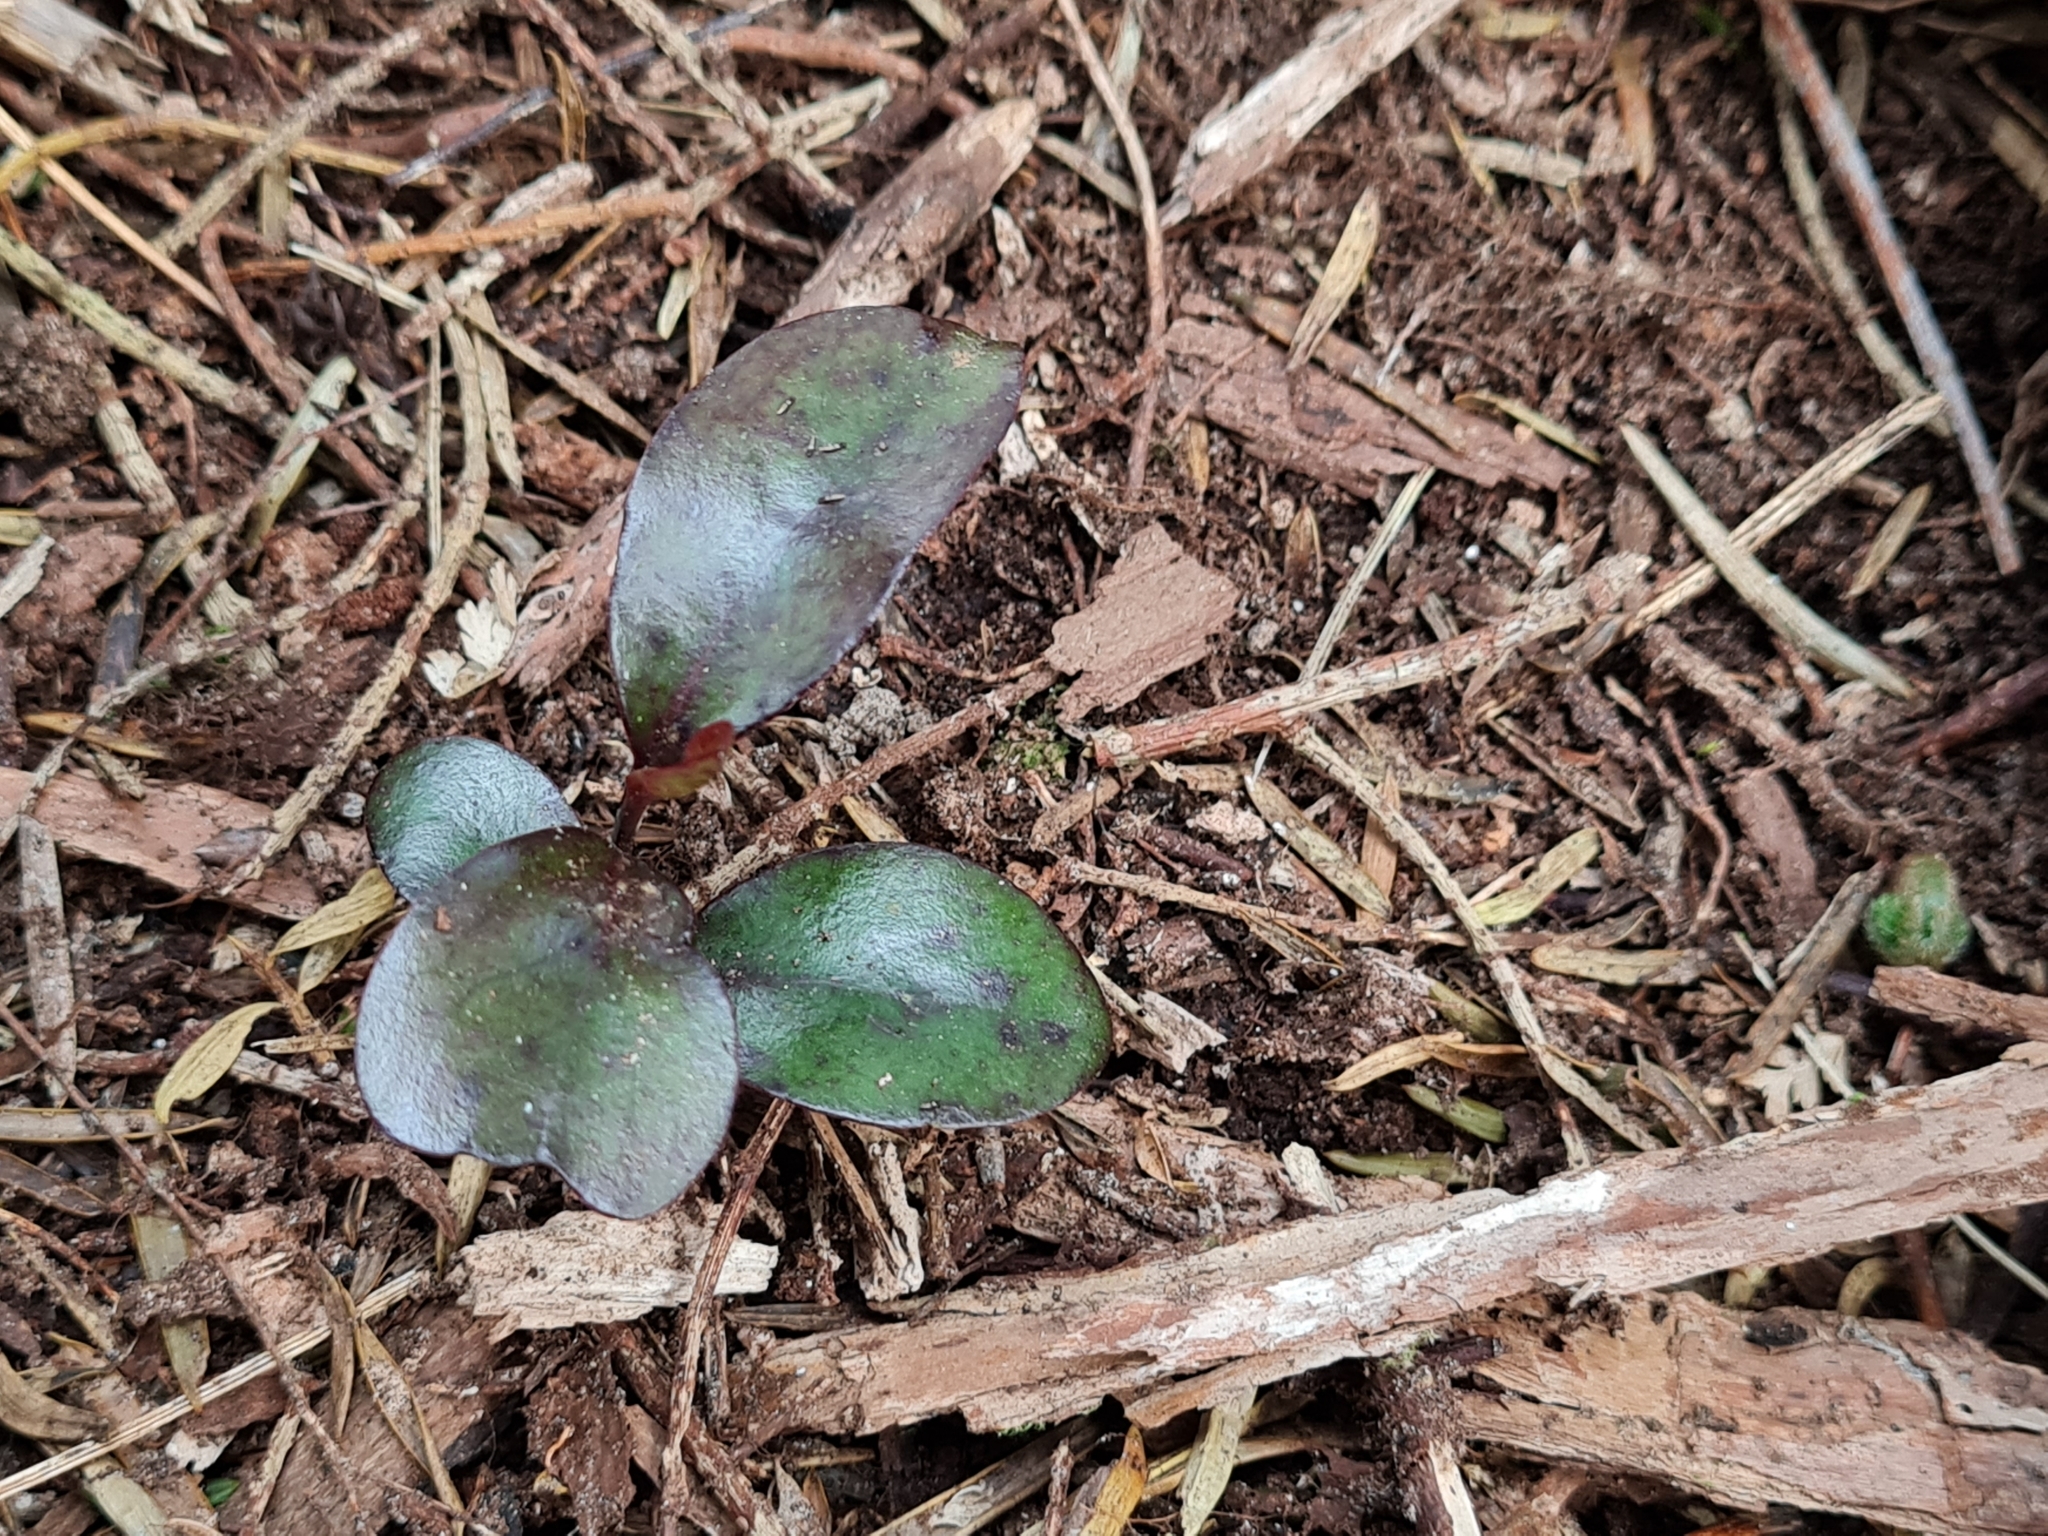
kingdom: Plantae
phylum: Tracheophyta
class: Magnoliopsida
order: Canellales
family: Winteraceae
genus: Pseudowintera
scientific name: Pseudowintera colorata
